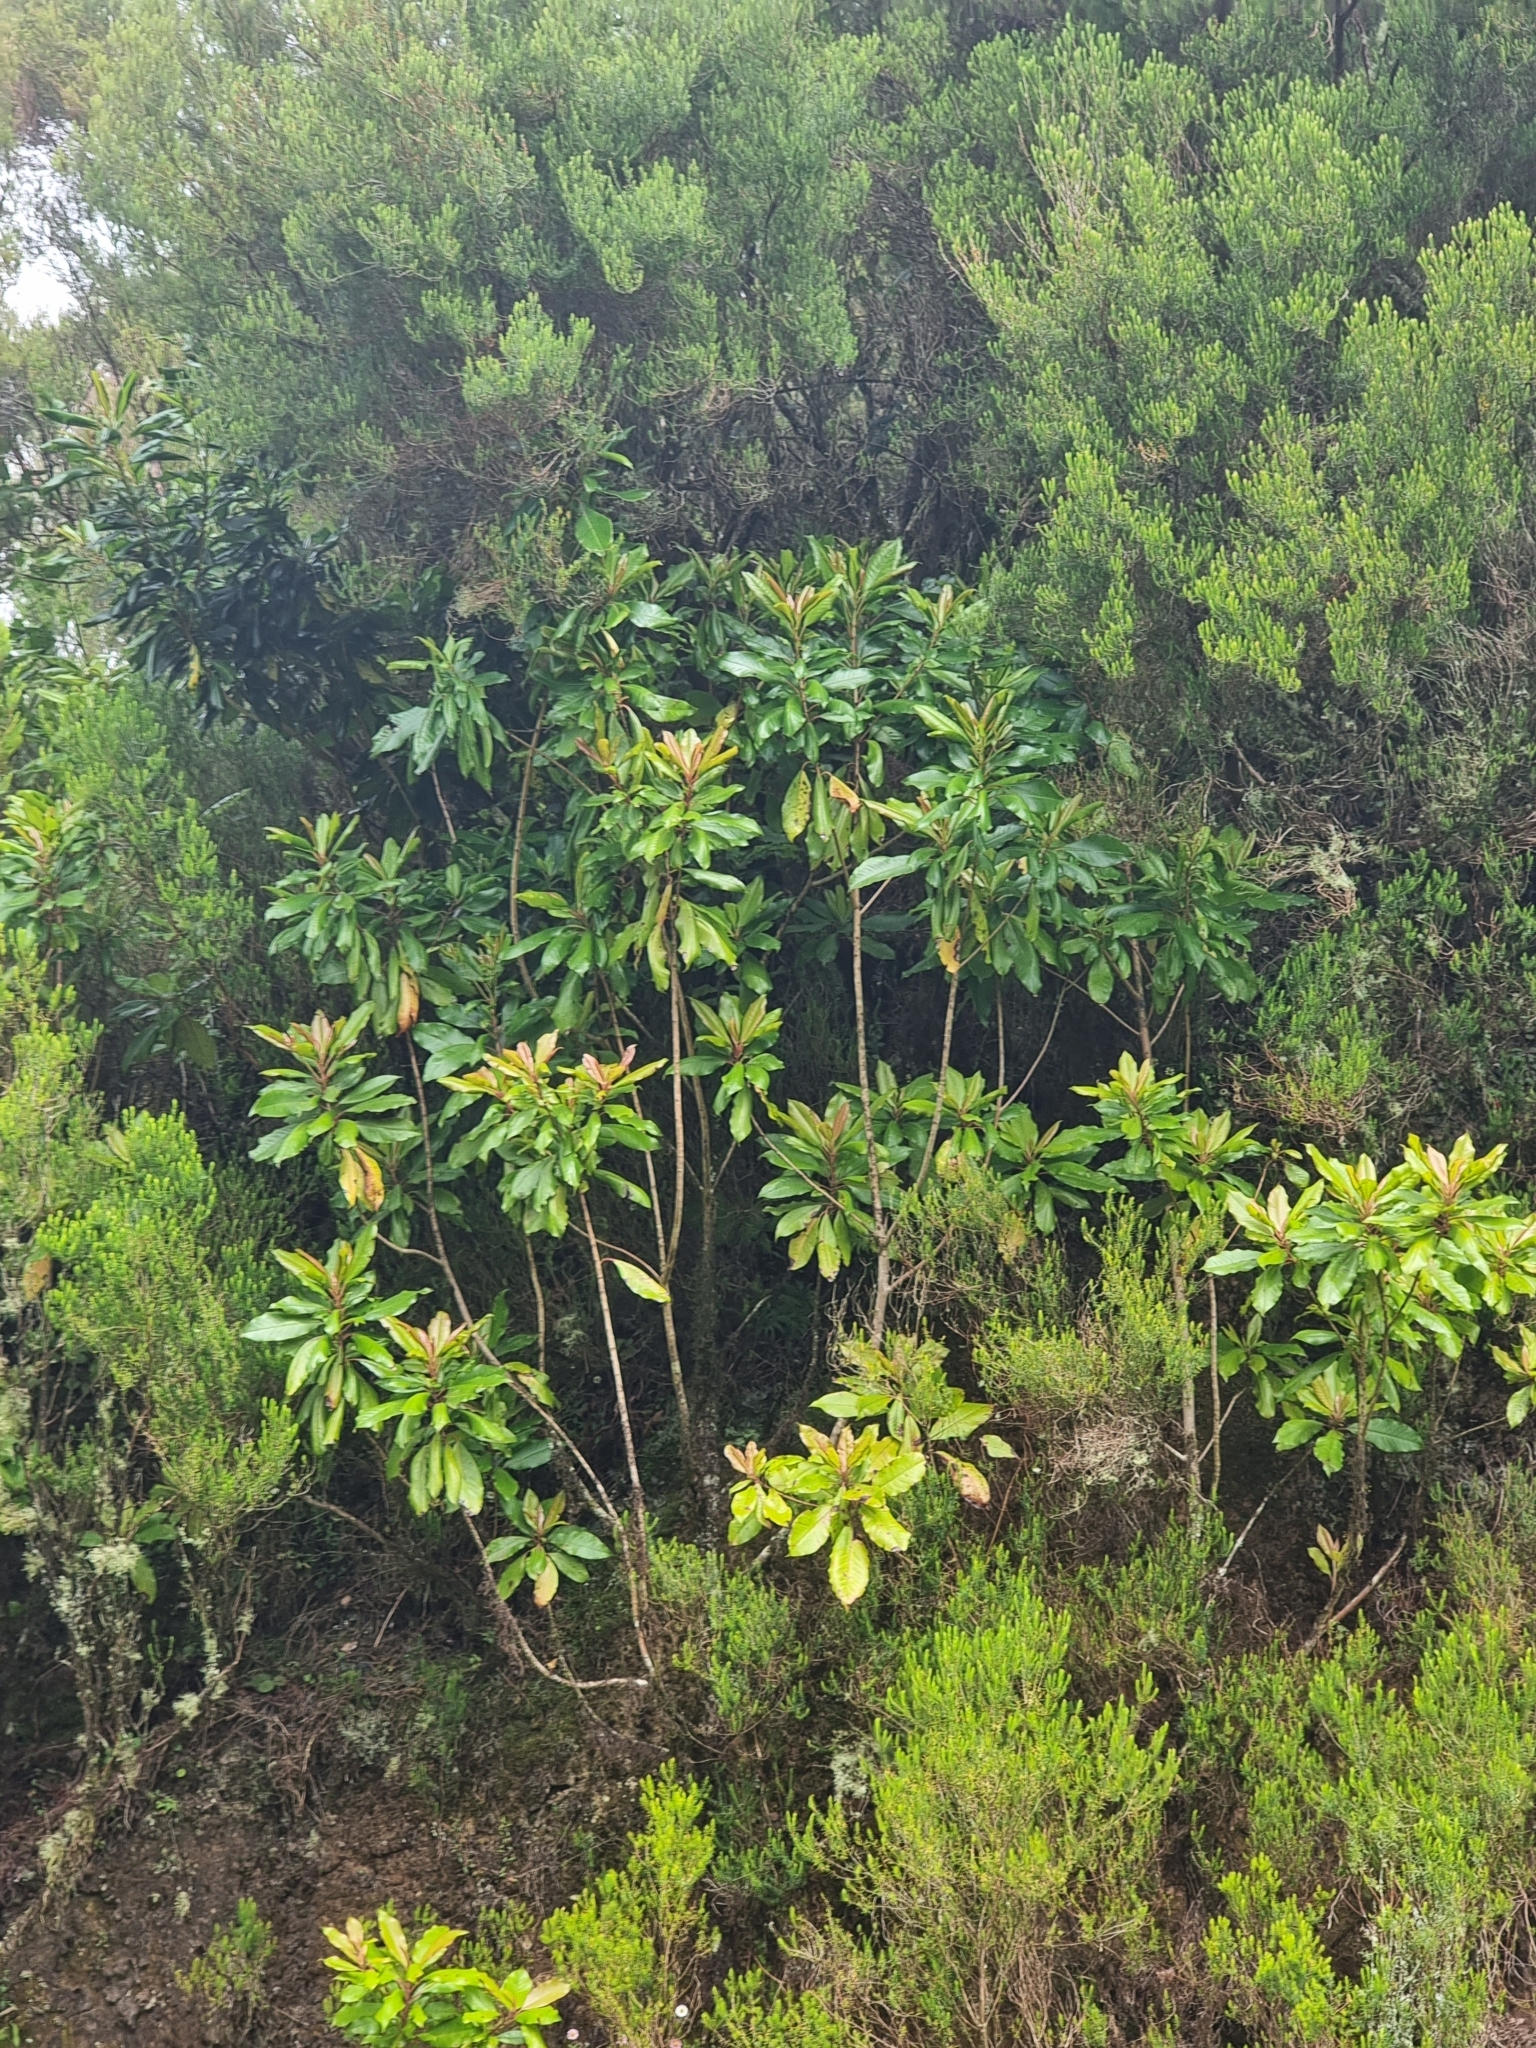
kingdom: Plantae
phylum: Tracheophyta
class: Magnoliopsida
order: Ericales
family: Clethraceae
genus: Clethra
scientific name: Clethra arborea
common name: Lily-of-the-valley-tree
